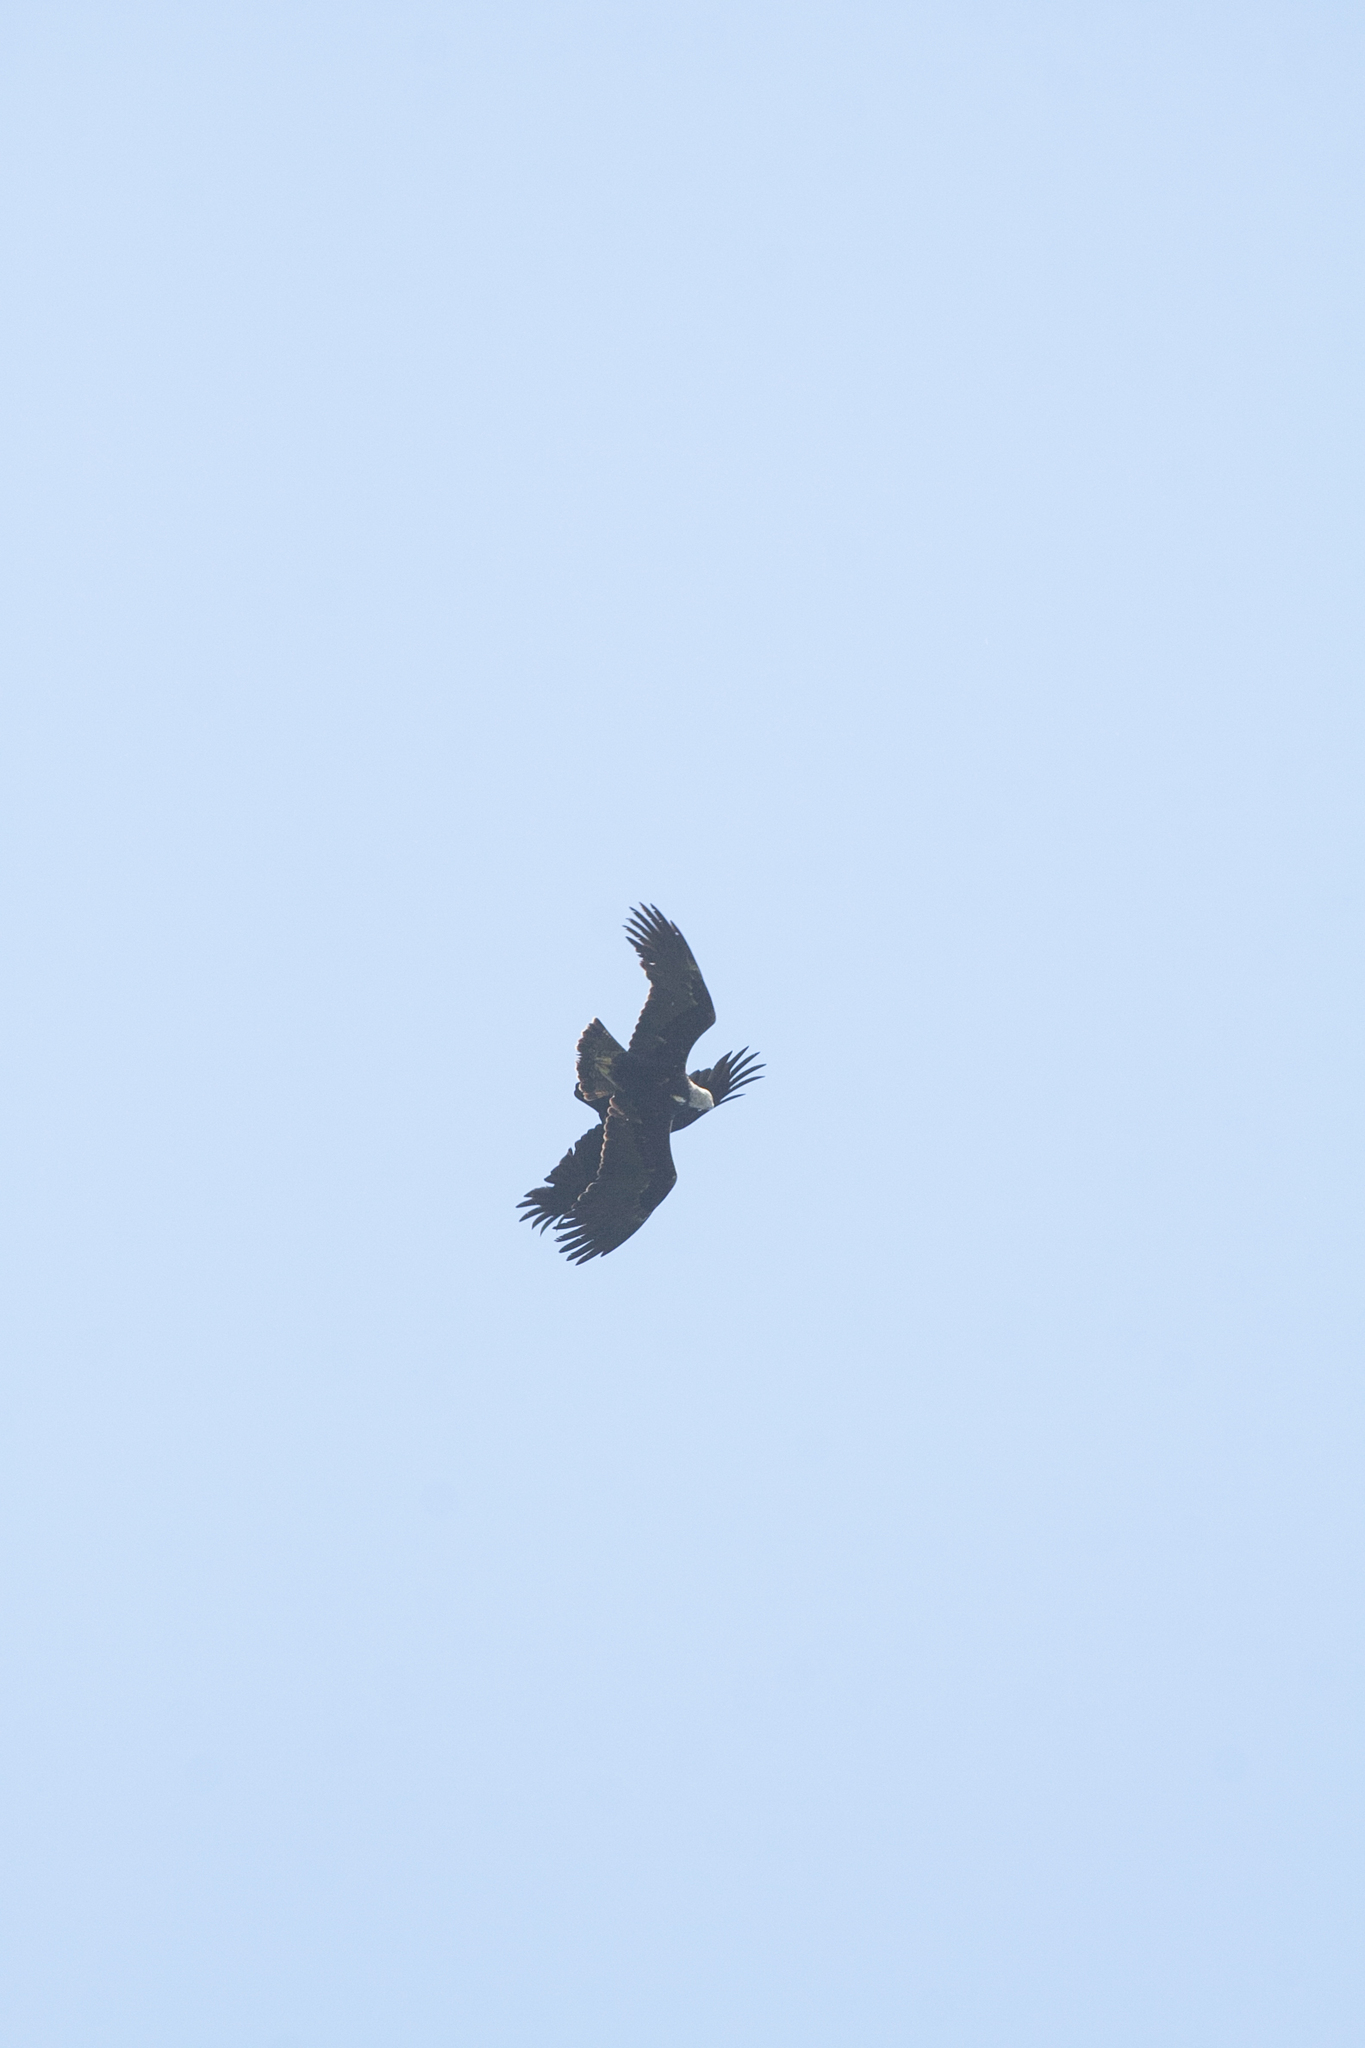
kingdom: Animalia
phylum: Chordata
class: Aves
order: Accipitriformes
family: Accipitridae
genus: Milvus
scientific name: Milvus migrans
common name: Black kite
